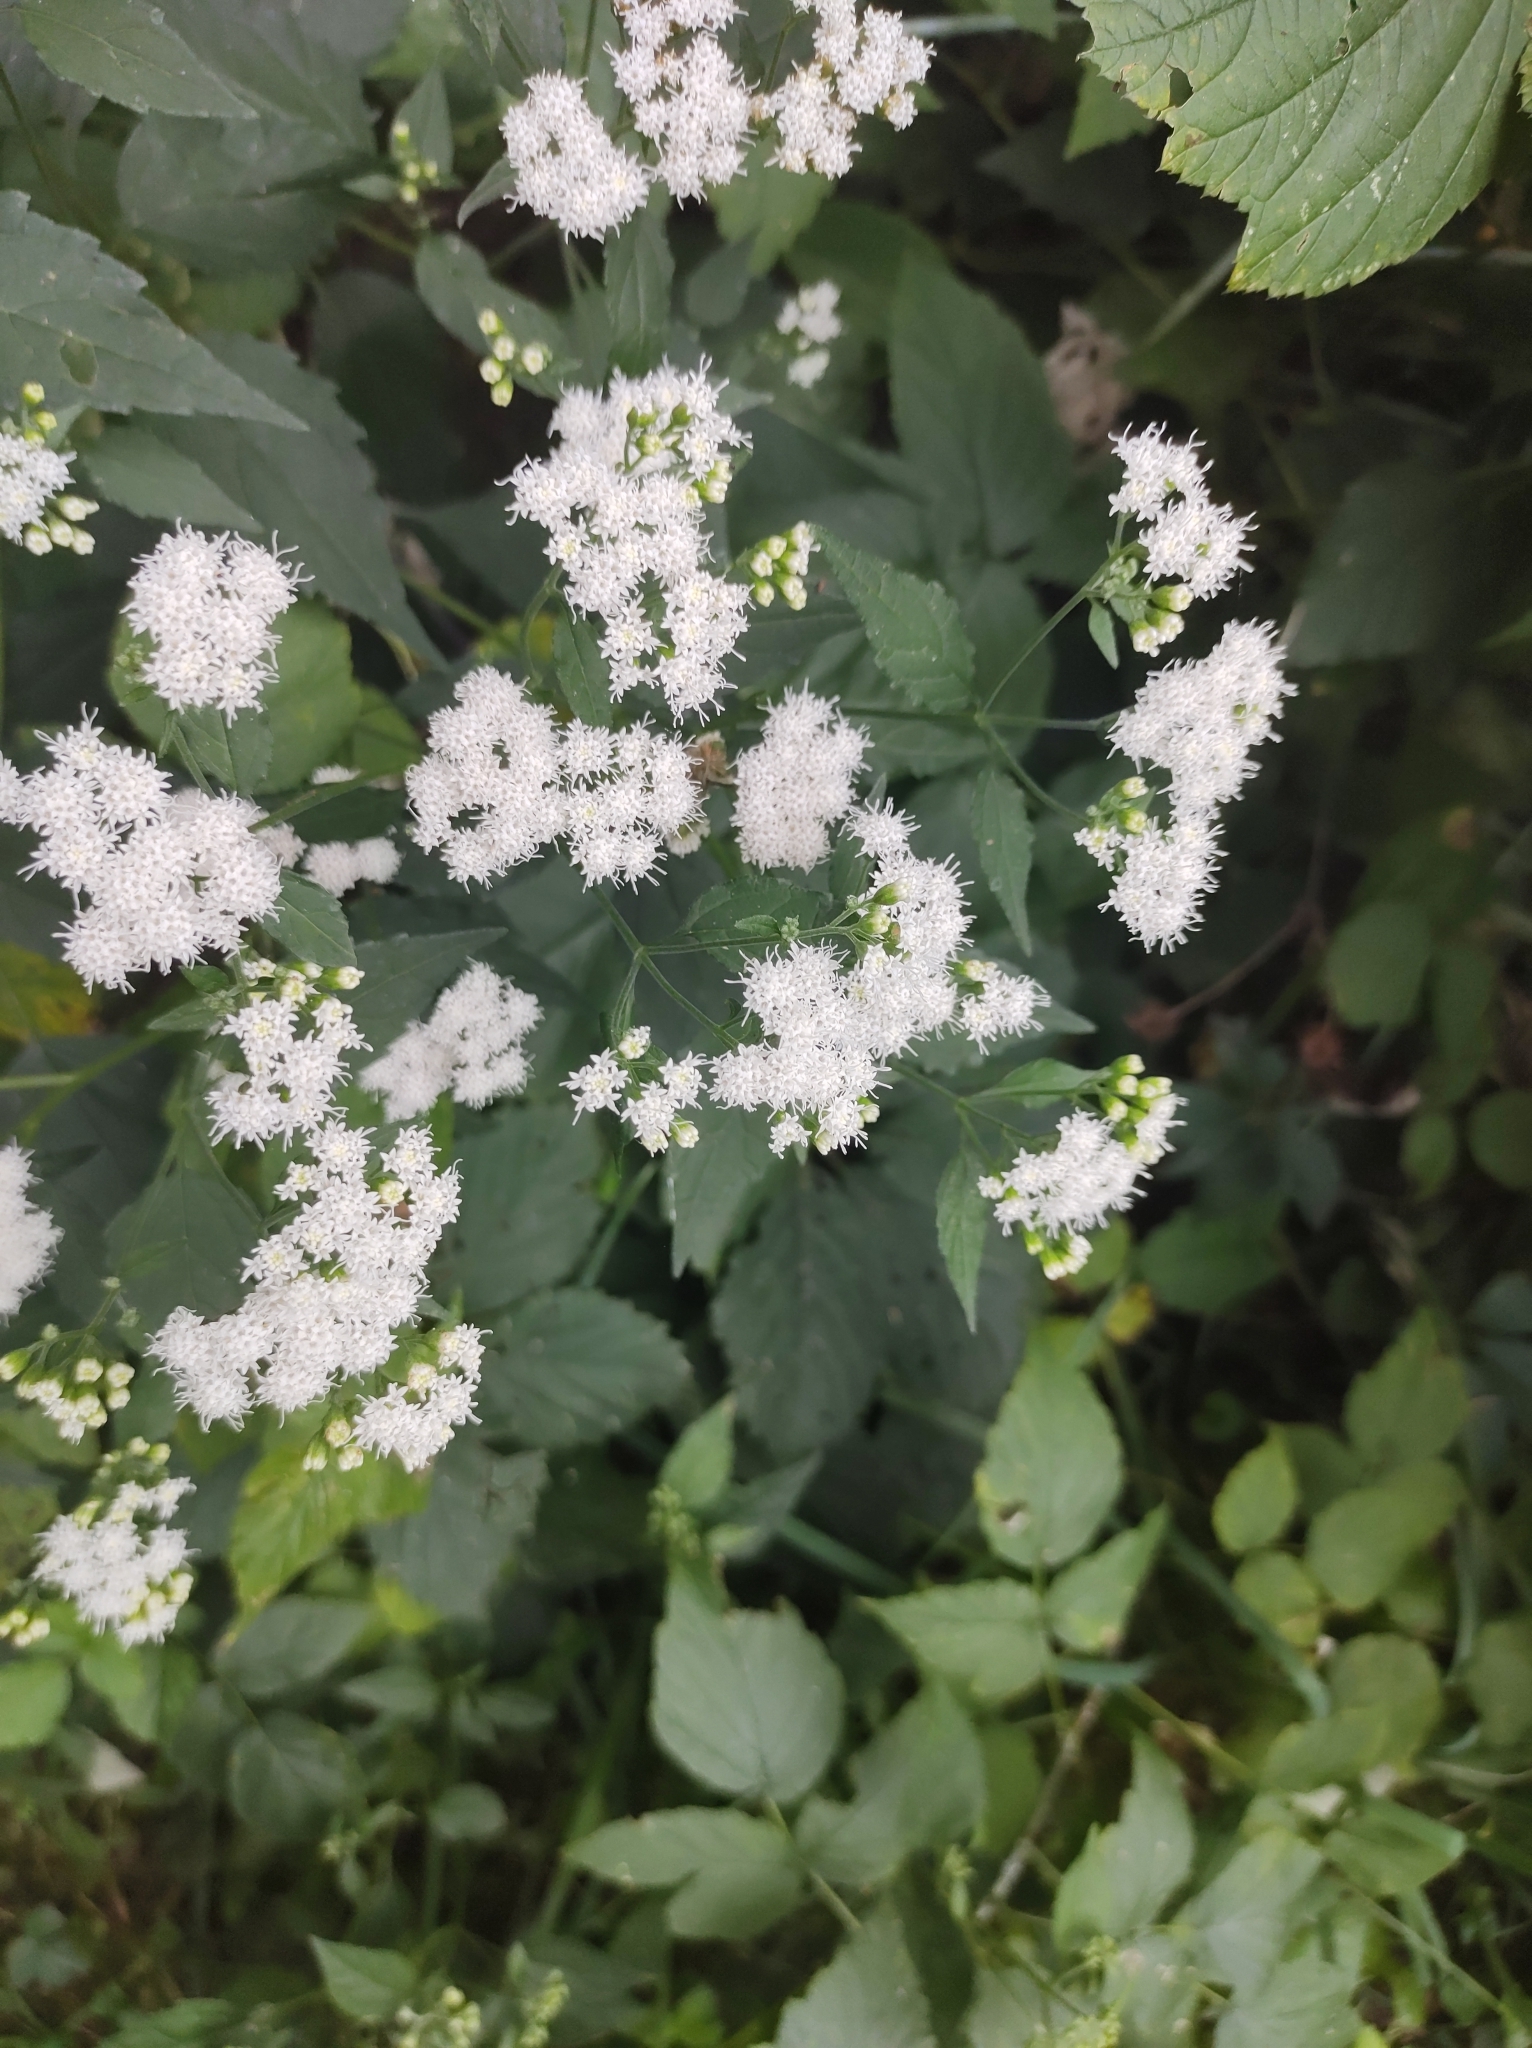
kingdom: Plantae
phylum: Tracheophyta
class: Magnoliopsida
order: Asterales
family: Asteraceae
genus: Ageratina
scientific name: Ageratina altissima
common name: White snakeroot
